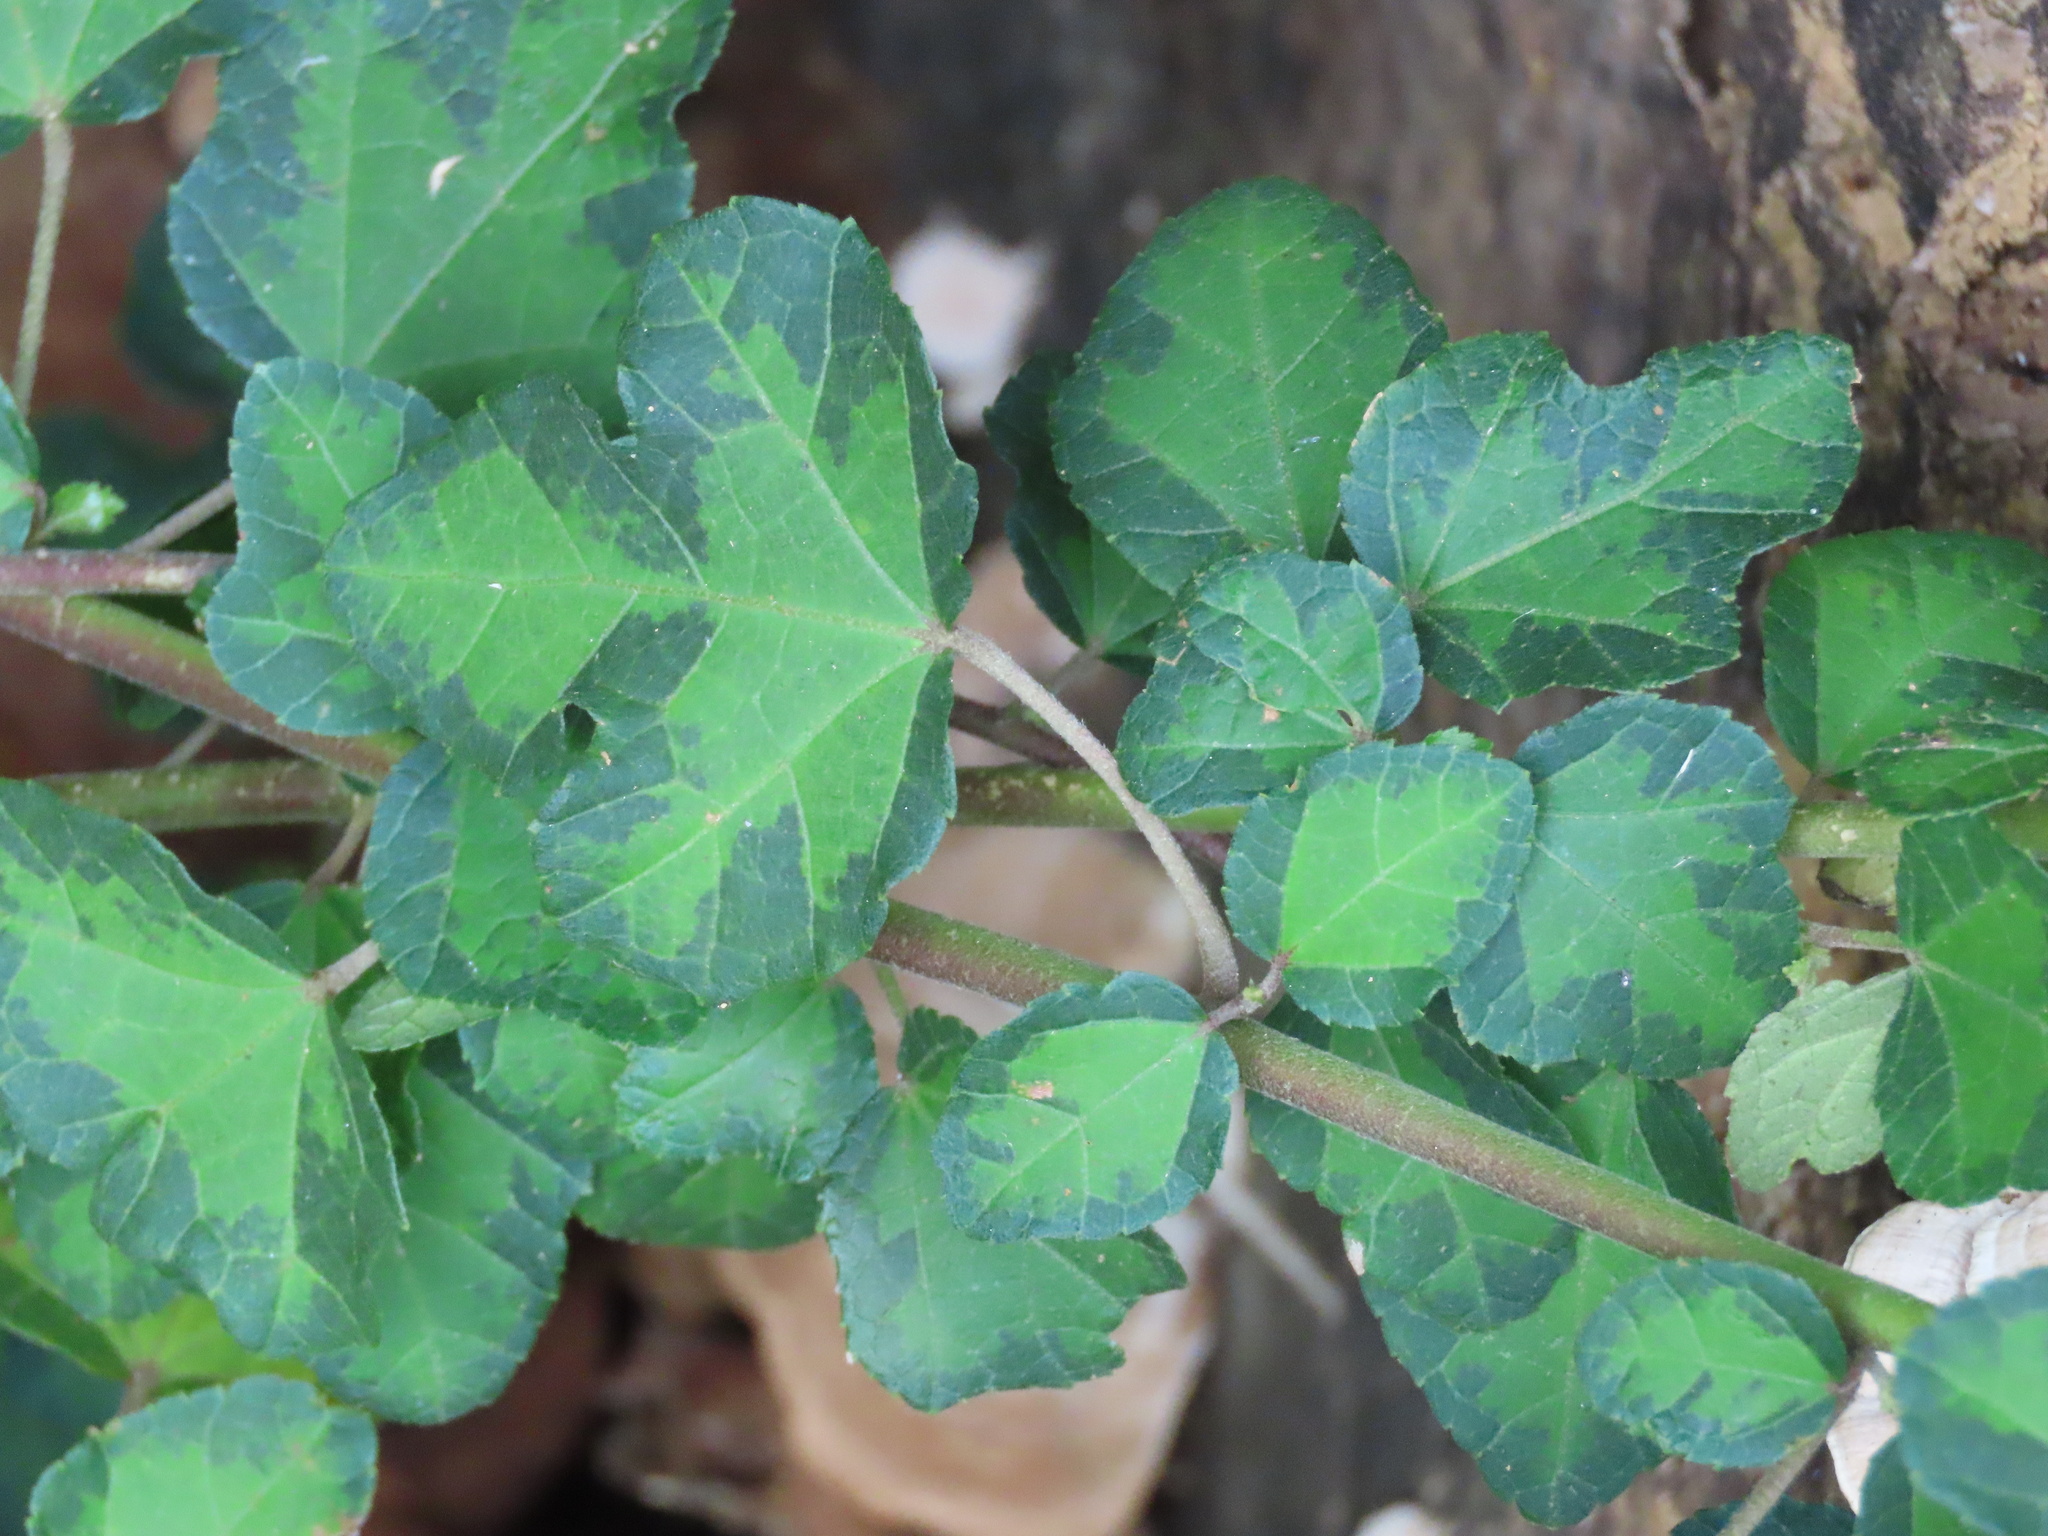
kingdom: Plantae
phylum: Tracheophyta
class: Magnoliopsida
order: Malvales
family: Malvaceae
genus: Urena
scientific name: Urena procumbens
